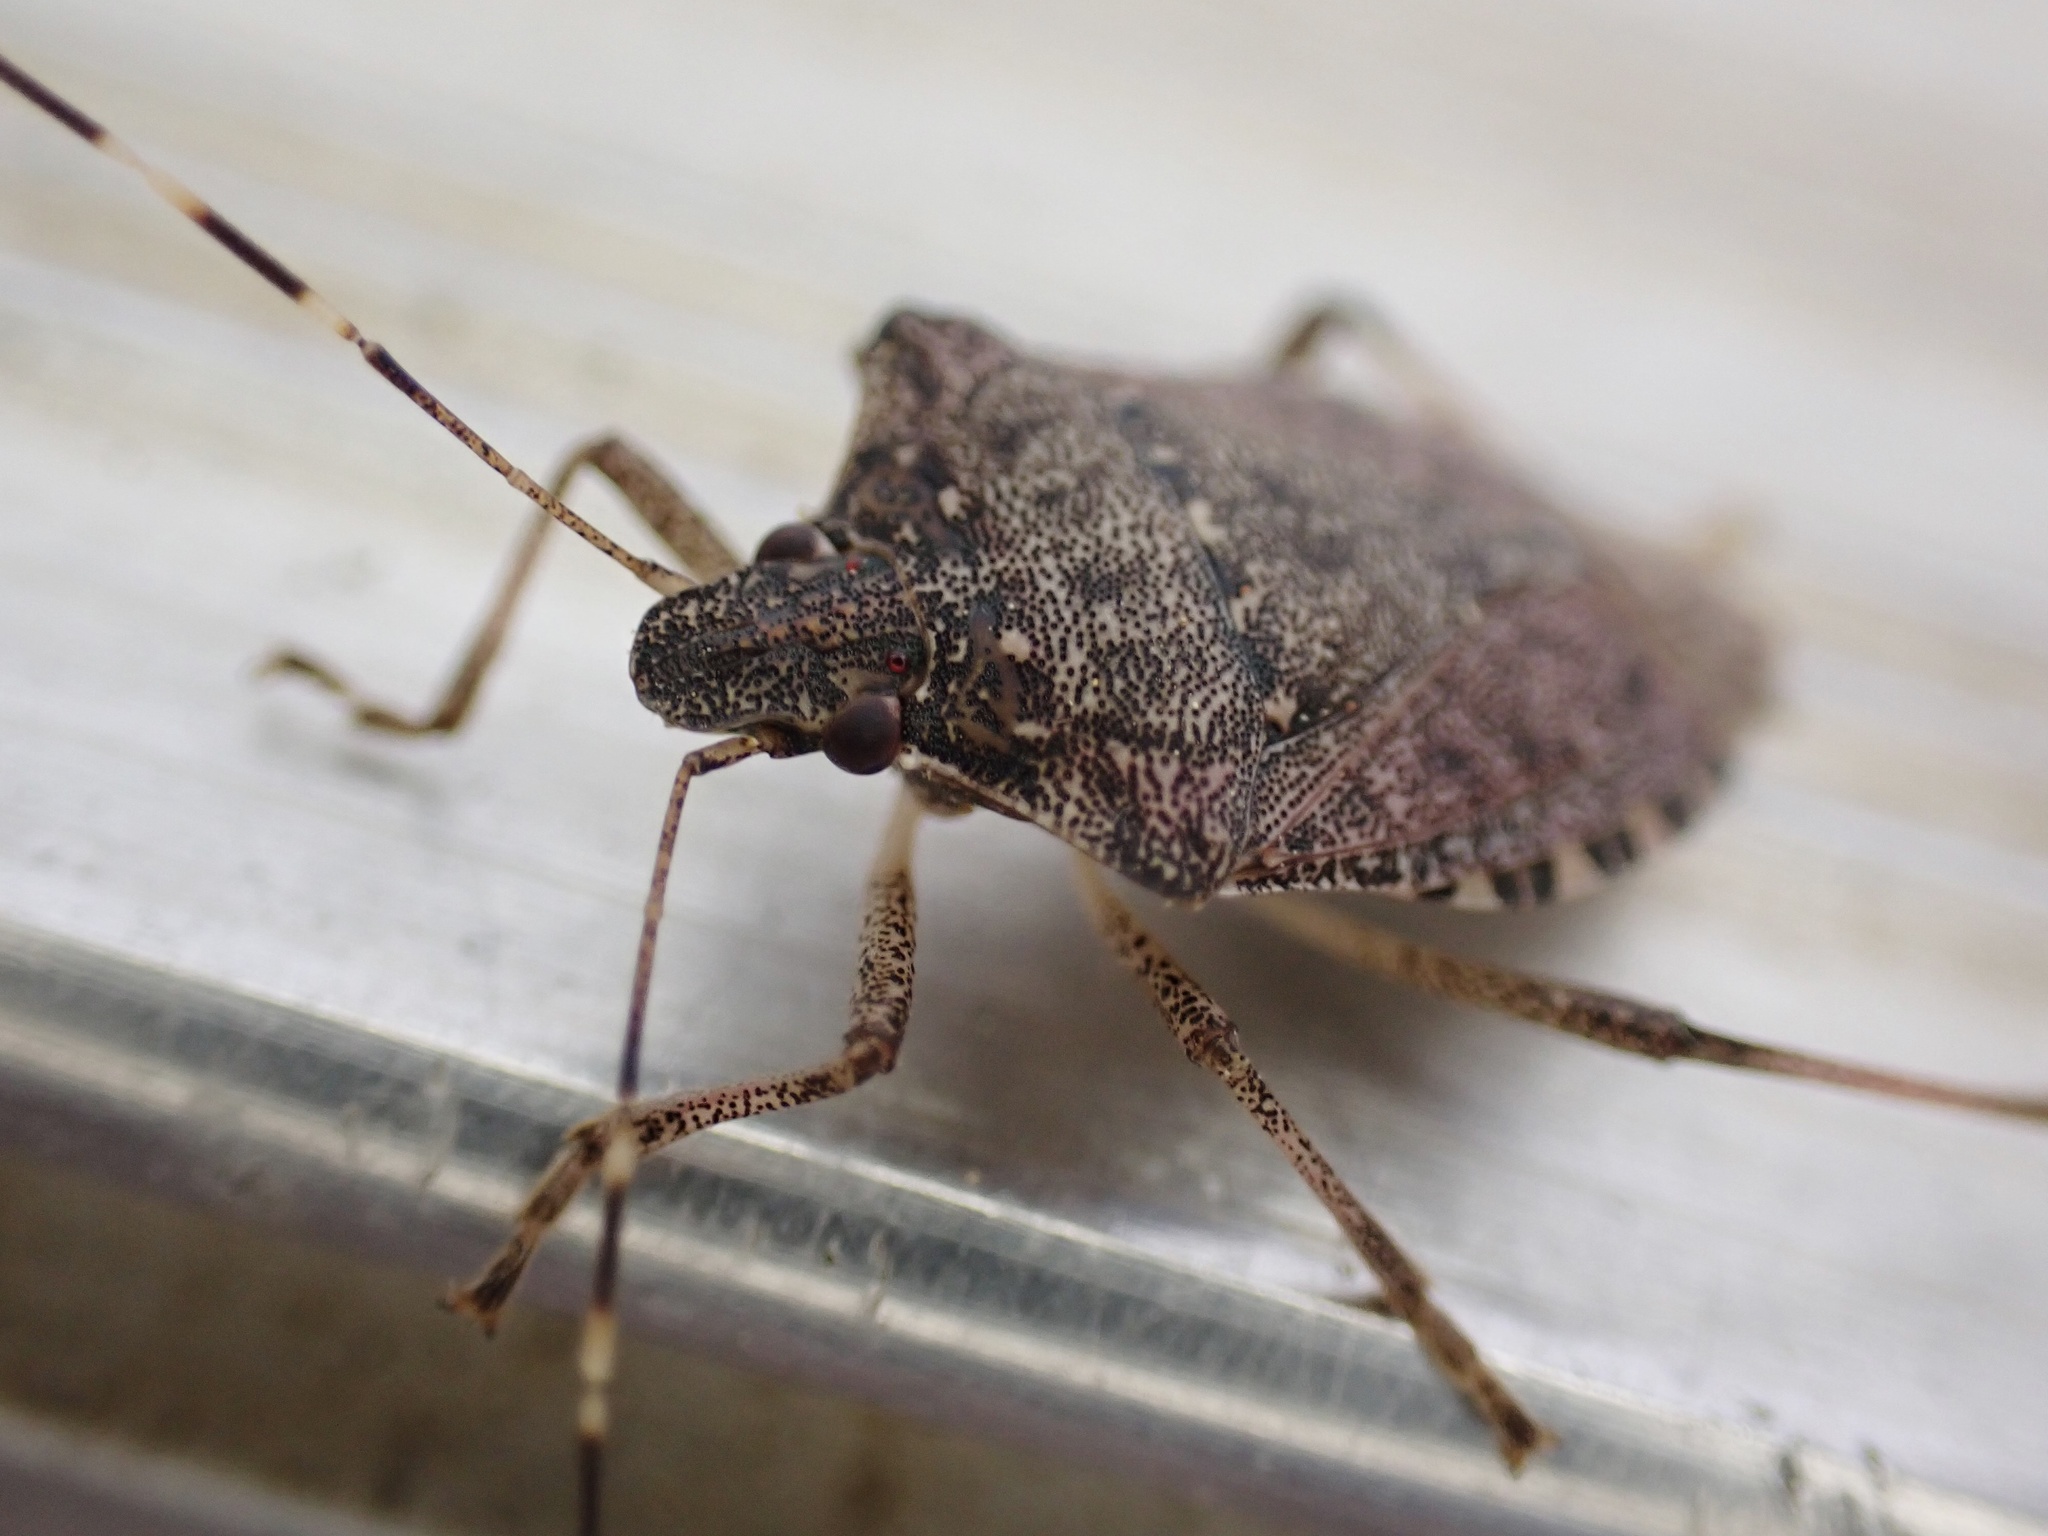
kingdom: Animalia
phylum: Arthropoda
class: Insecta
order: Hemiptera
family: Pentatomidae
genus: Halyomorpha
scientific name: Halyomorpha halys
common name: Brown marmorated stink bug
